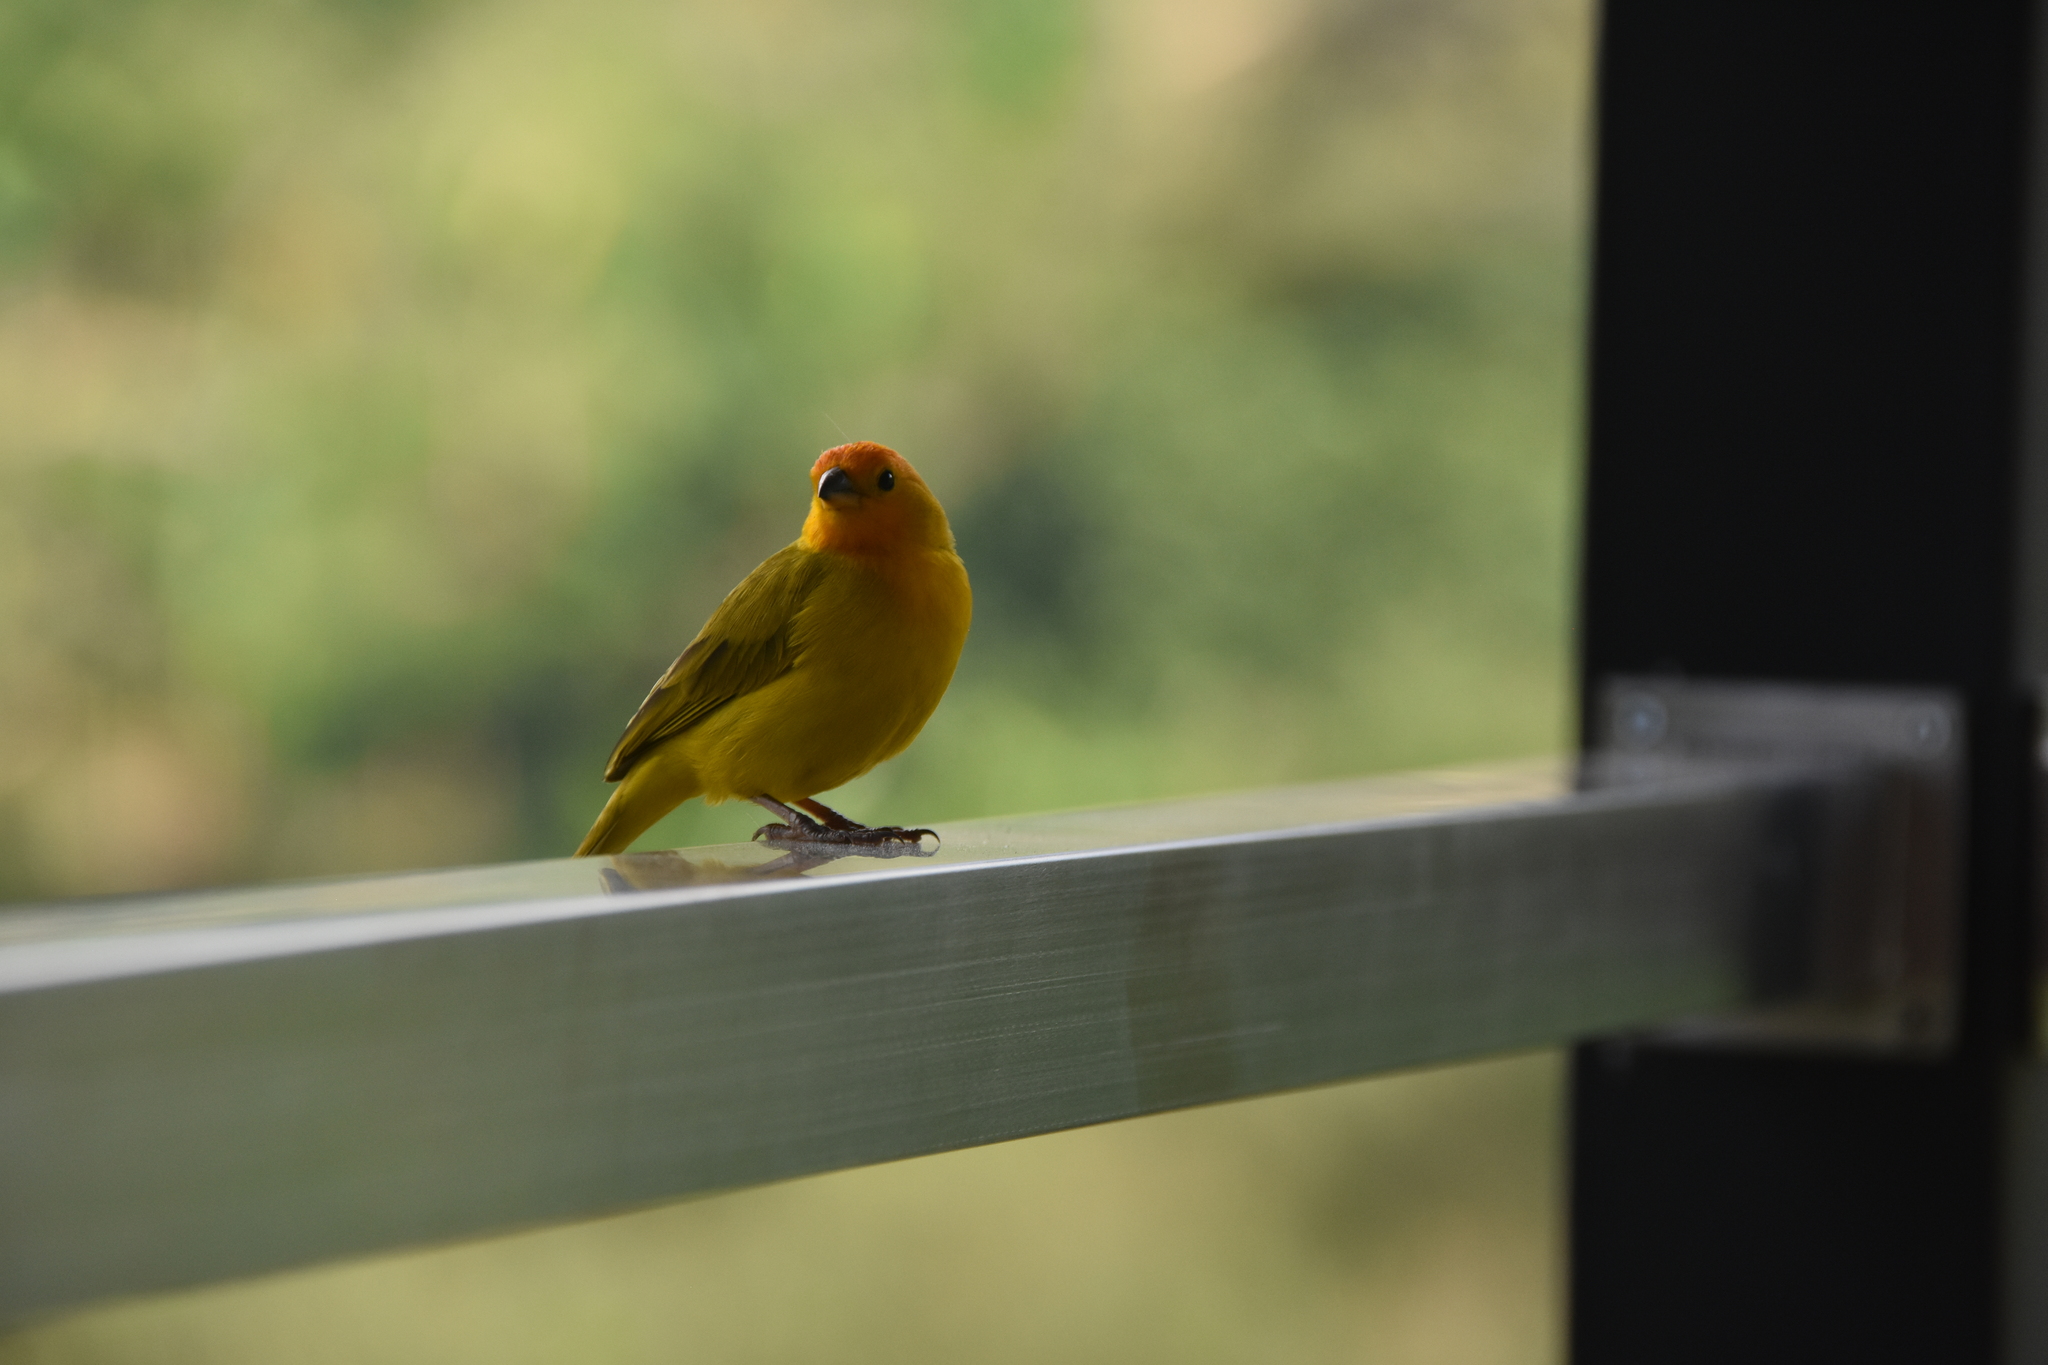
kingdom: Animalia
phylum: Chordata
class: Aves
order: Passeriformes
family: Thraupidae
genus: Sicalis
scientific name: Sicalis flaveola
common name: Saffron finch
